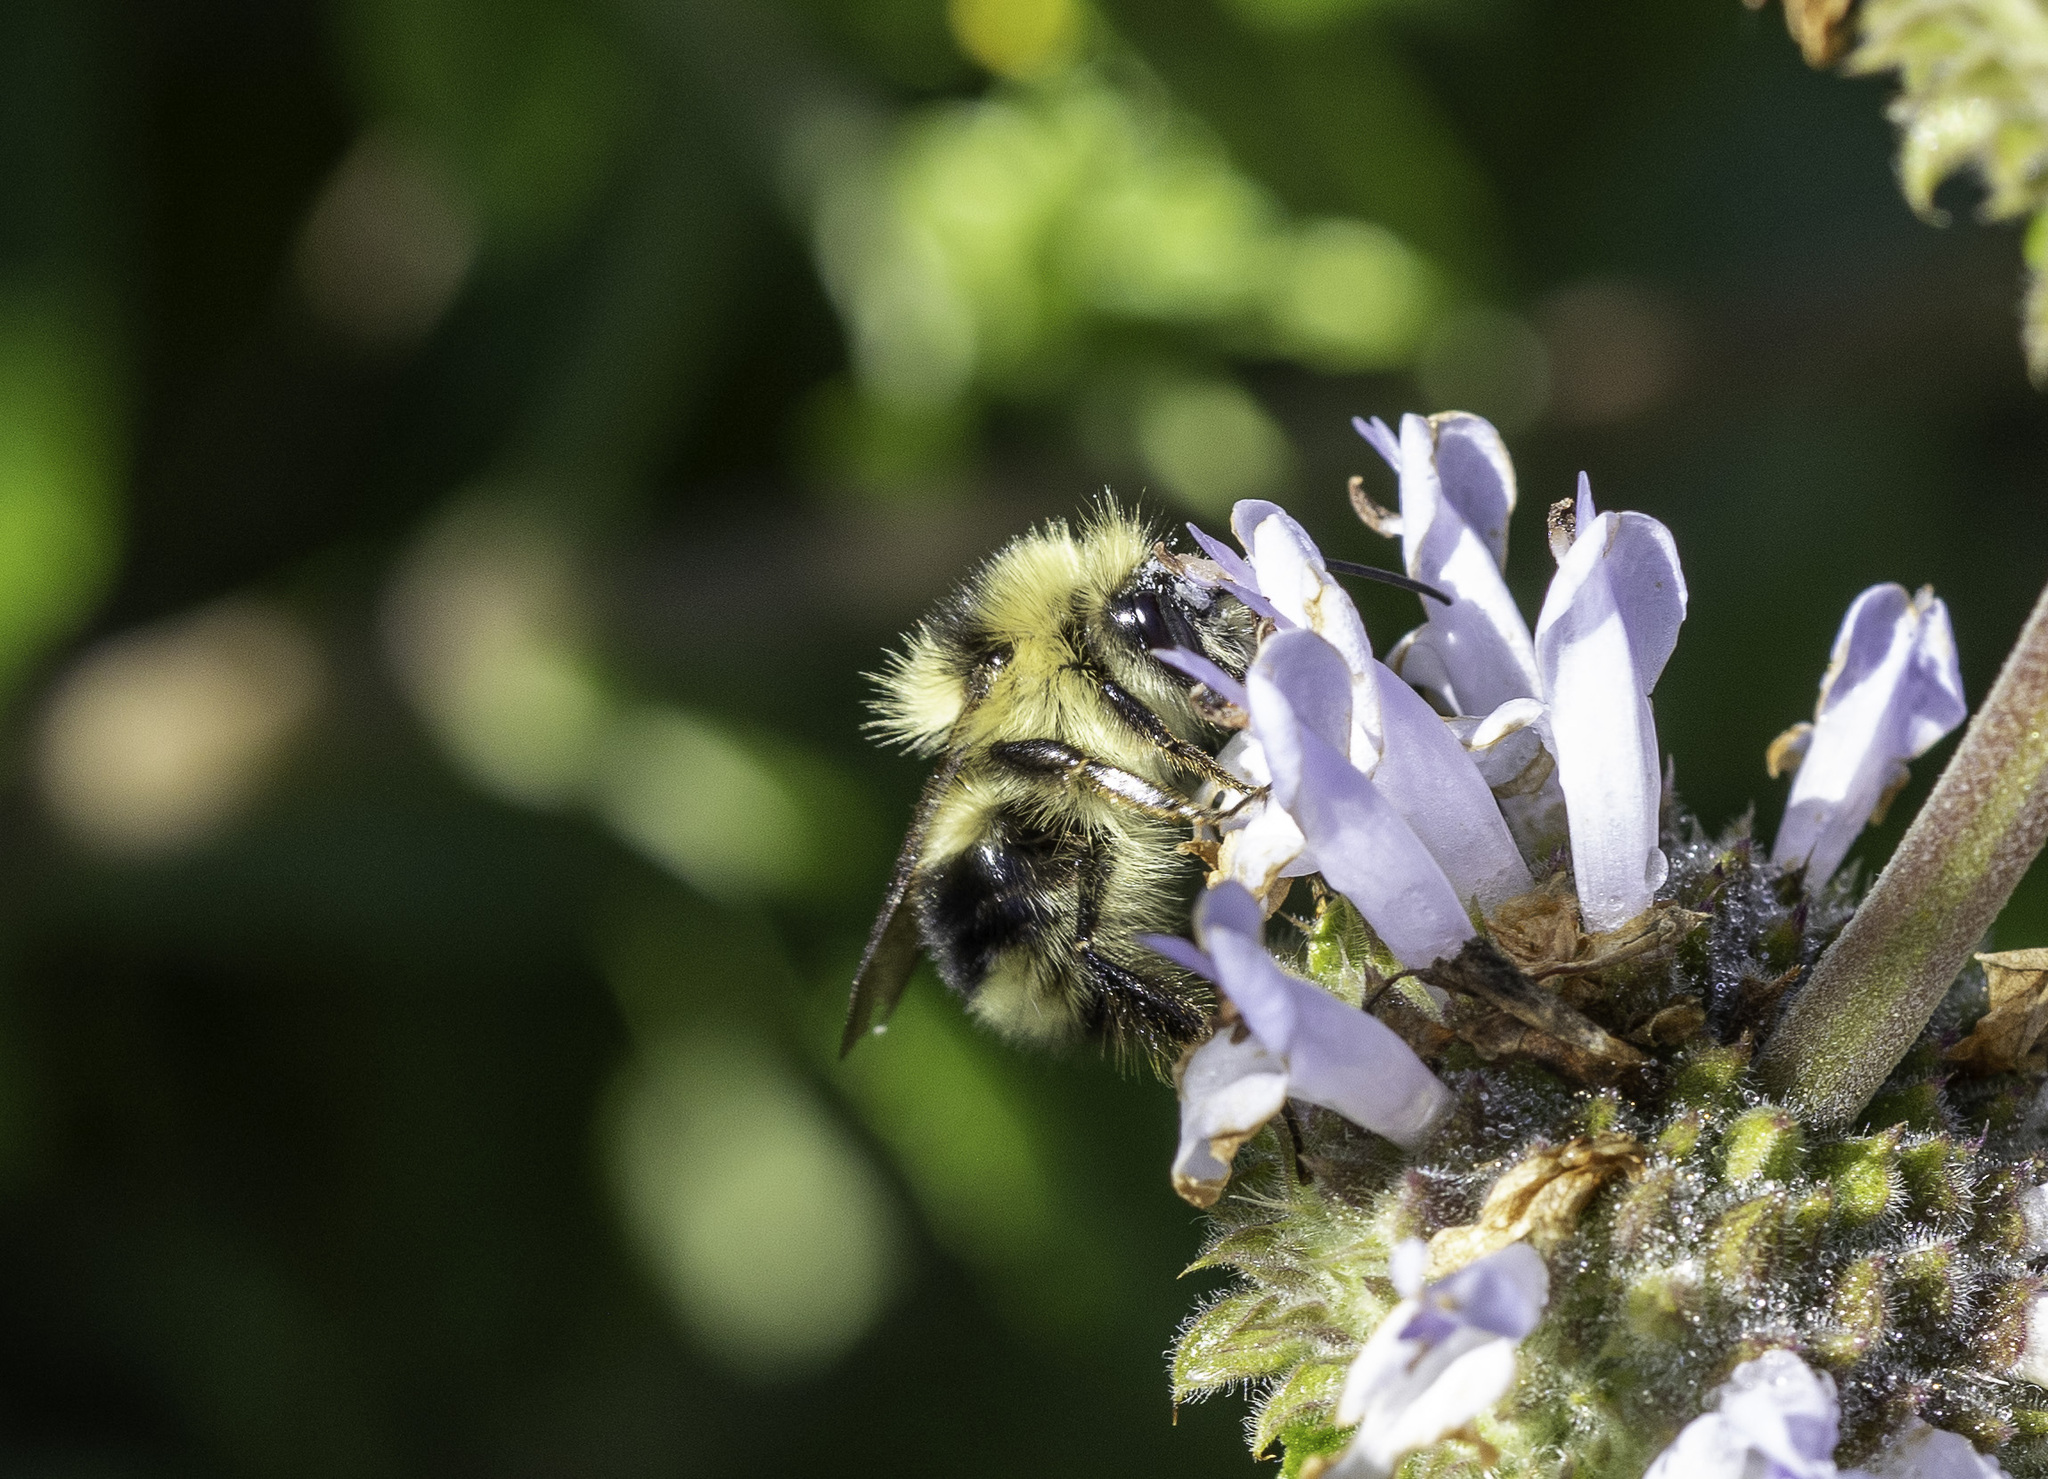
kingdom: Animalia
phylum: Arthropoda
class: Insecta
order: Hymenoptera
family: Apidae
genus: Bombus
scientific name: Bombus melanopygus
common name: Black tail bumble bee
